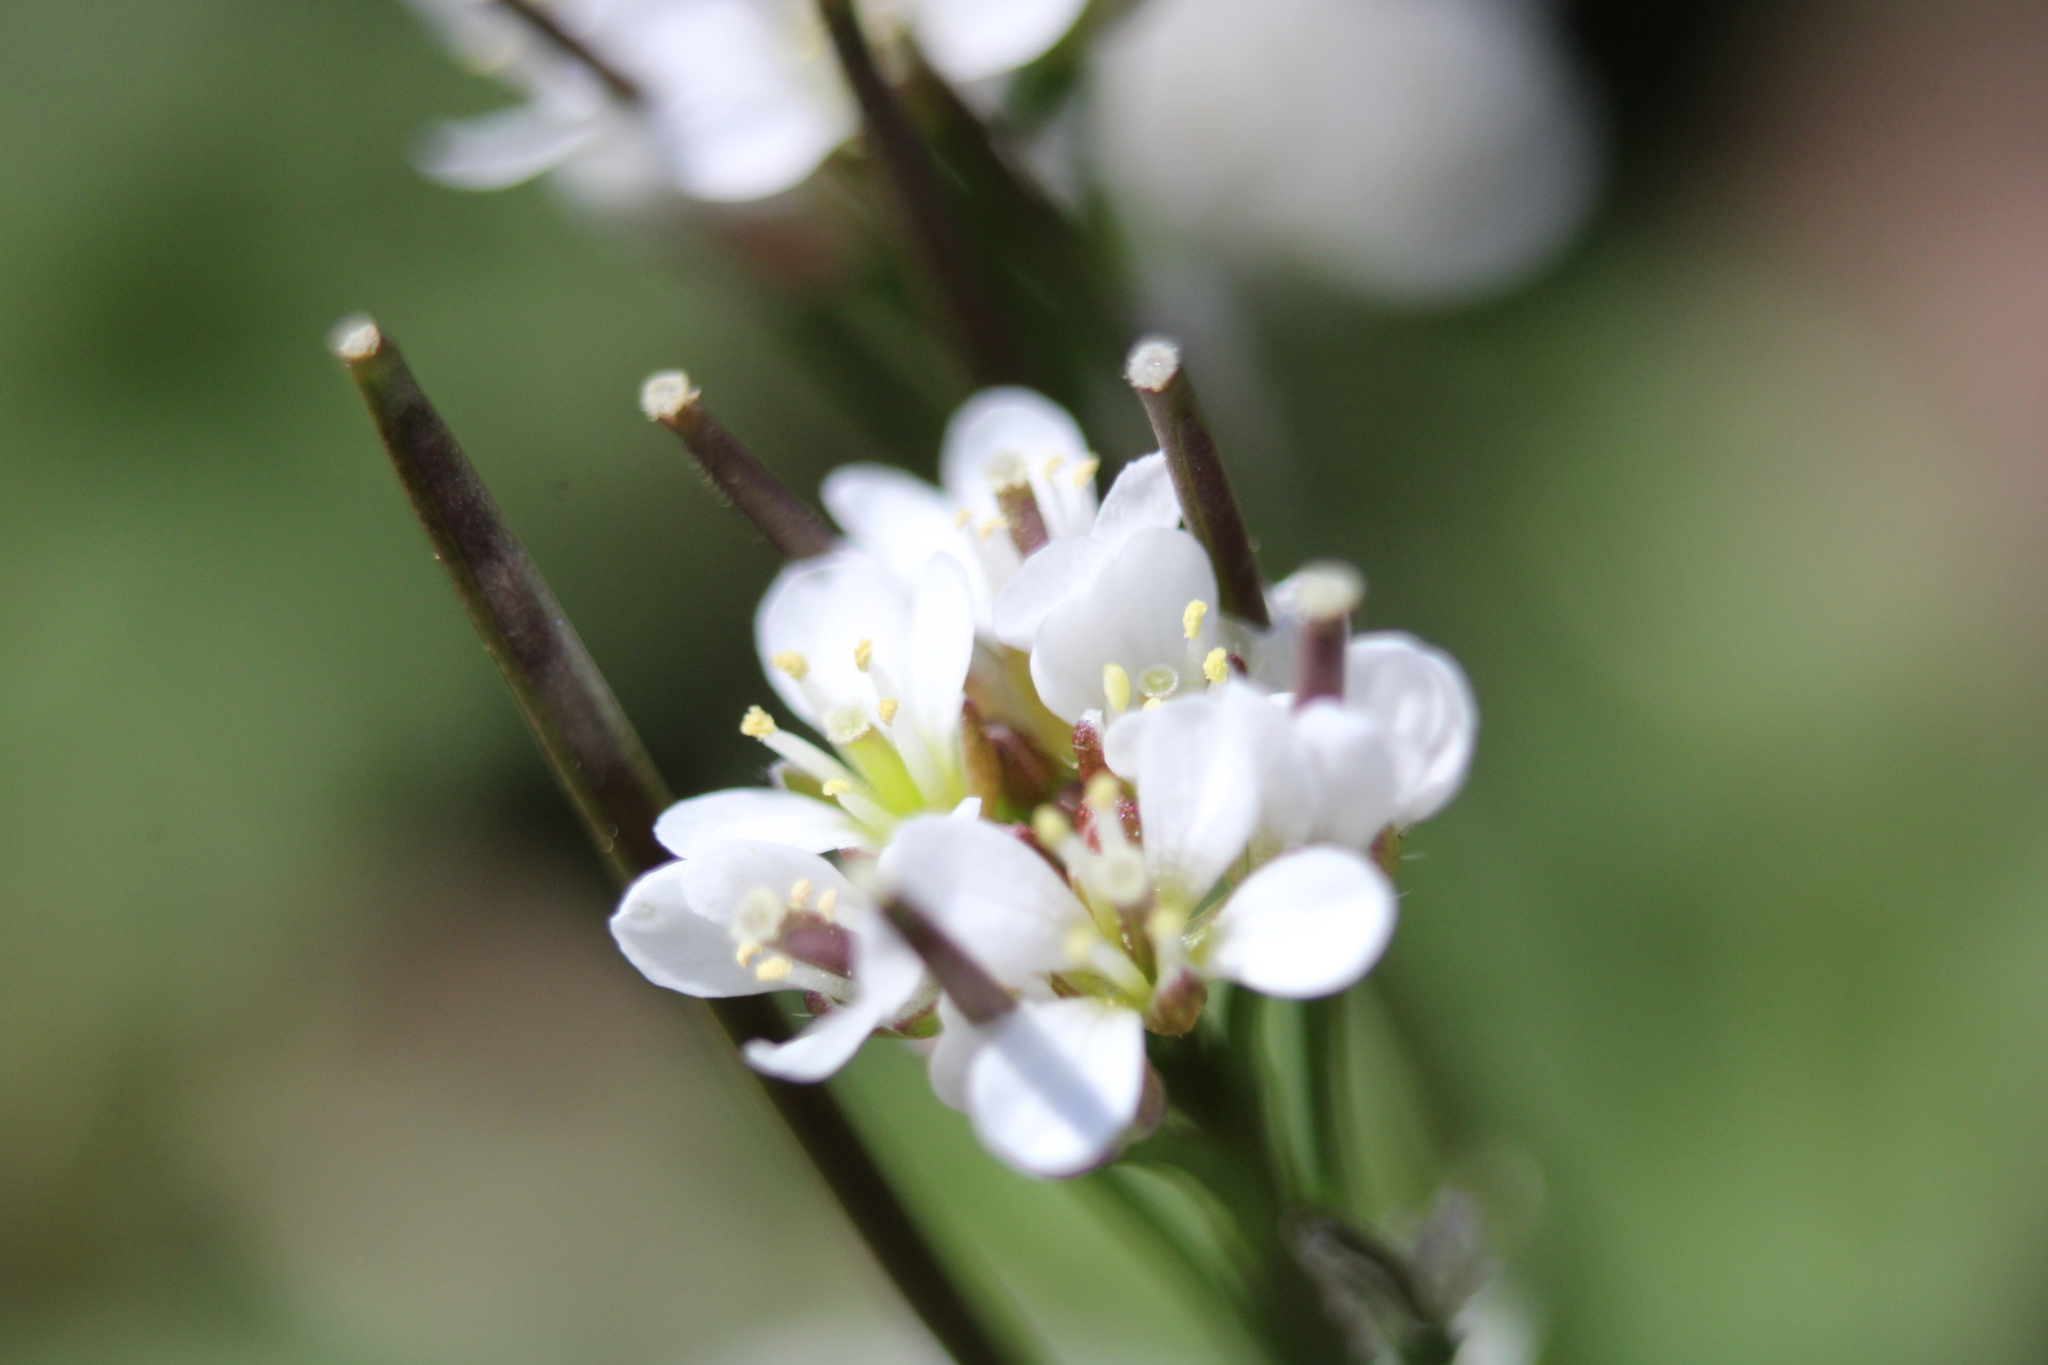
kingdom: Plantae
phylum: Tracheophyta
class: Magnoliopsida
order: Brassicales
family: Brassicaceae
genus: Cardamine
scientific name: Cardamine hirsuta
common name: Hairy bittercress
